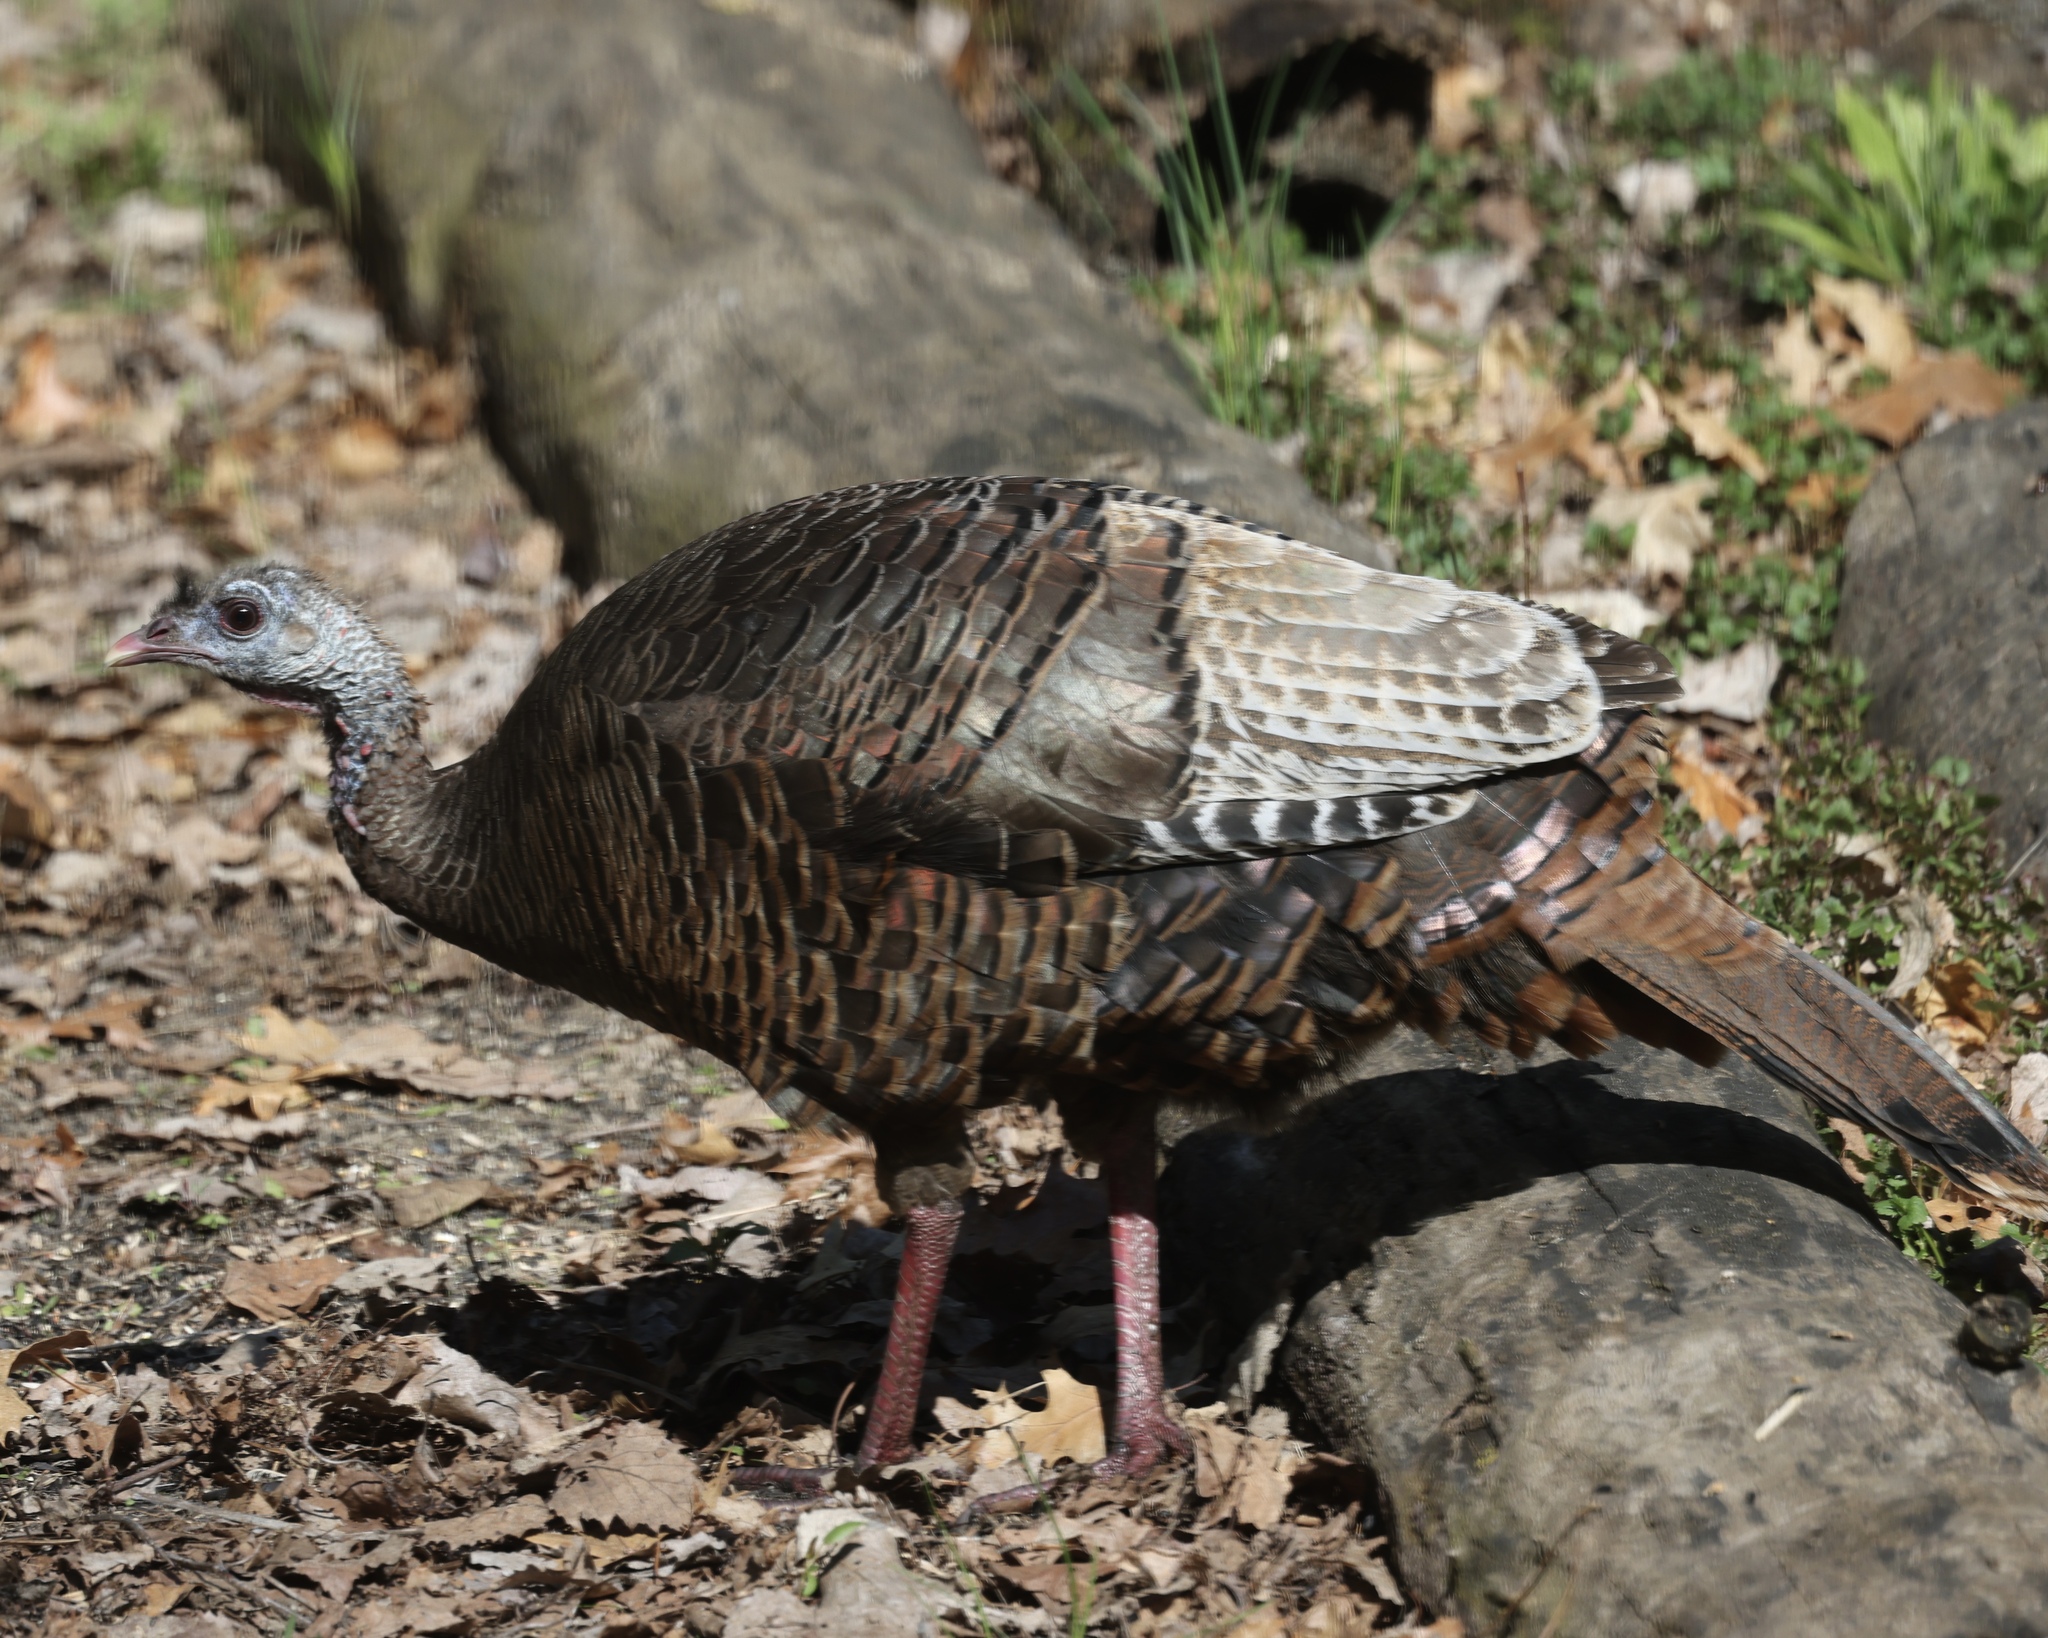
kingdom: Animalia
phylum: Chordata
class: Aves
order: Galliformes
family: Phasianidae
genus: Meleagris
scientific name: Meleagris gallopavo
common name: Wild turkey
